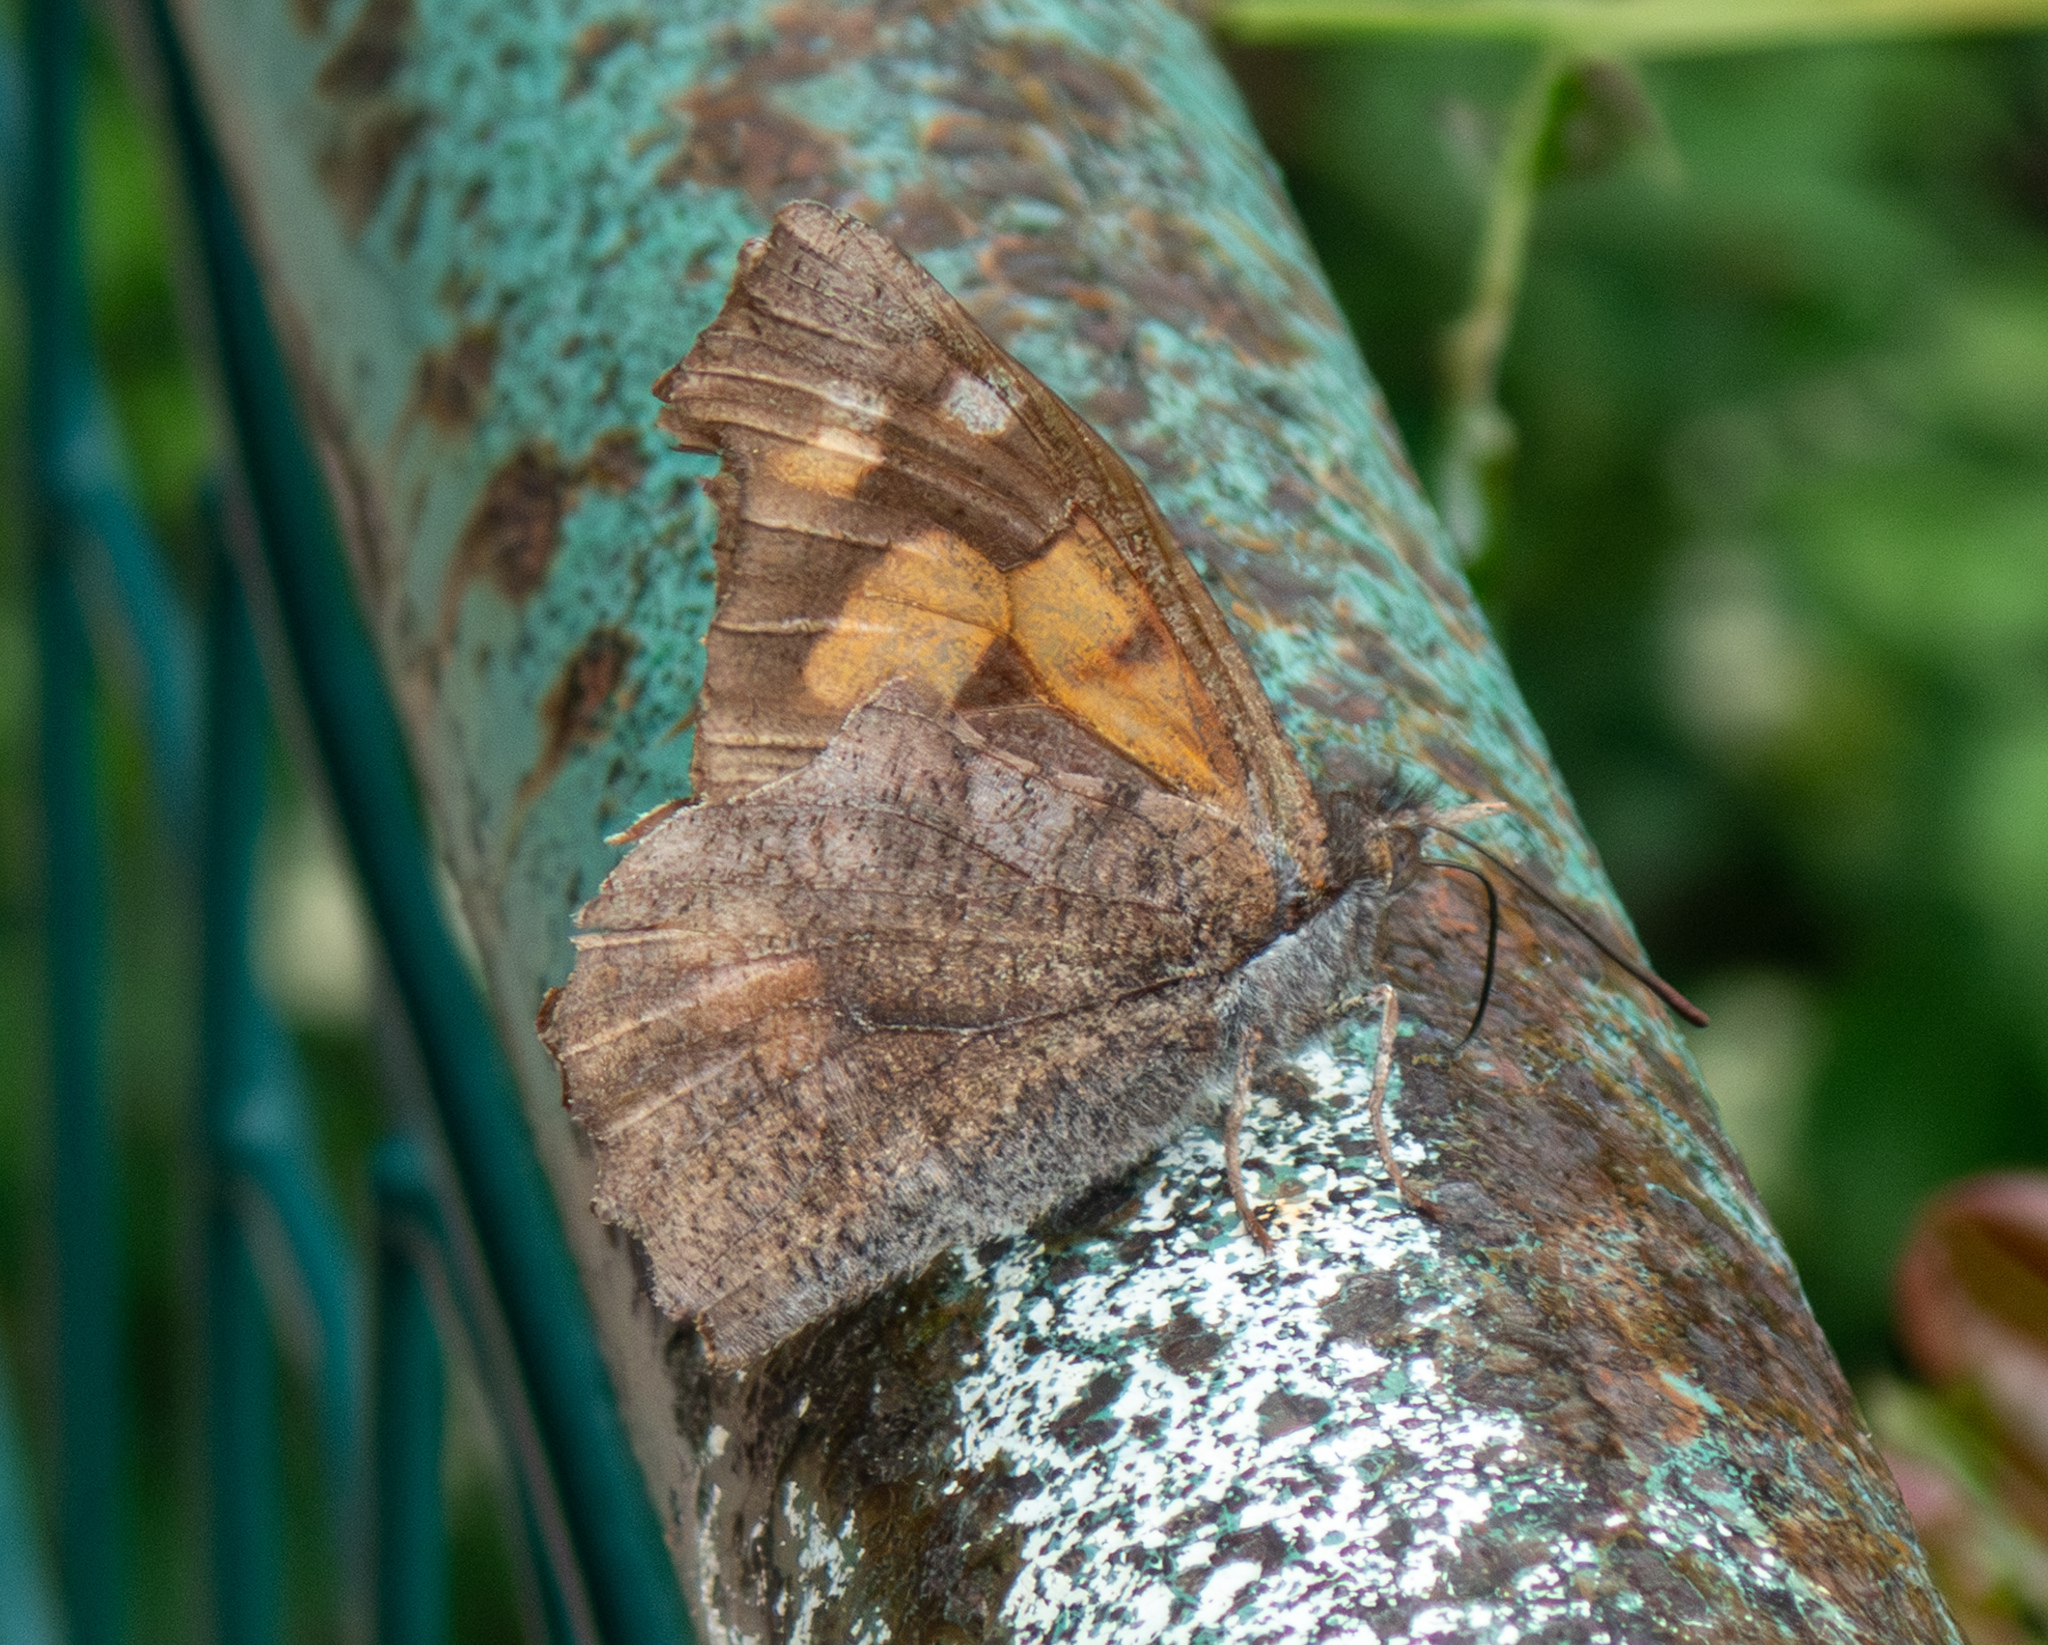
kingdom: Animalia
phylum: Arthropoda
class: Insecta
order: Lepidoptera
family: Nymphalidae
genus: Libythea
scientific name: Libythea celtis
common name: Nettle-tree butterfly
